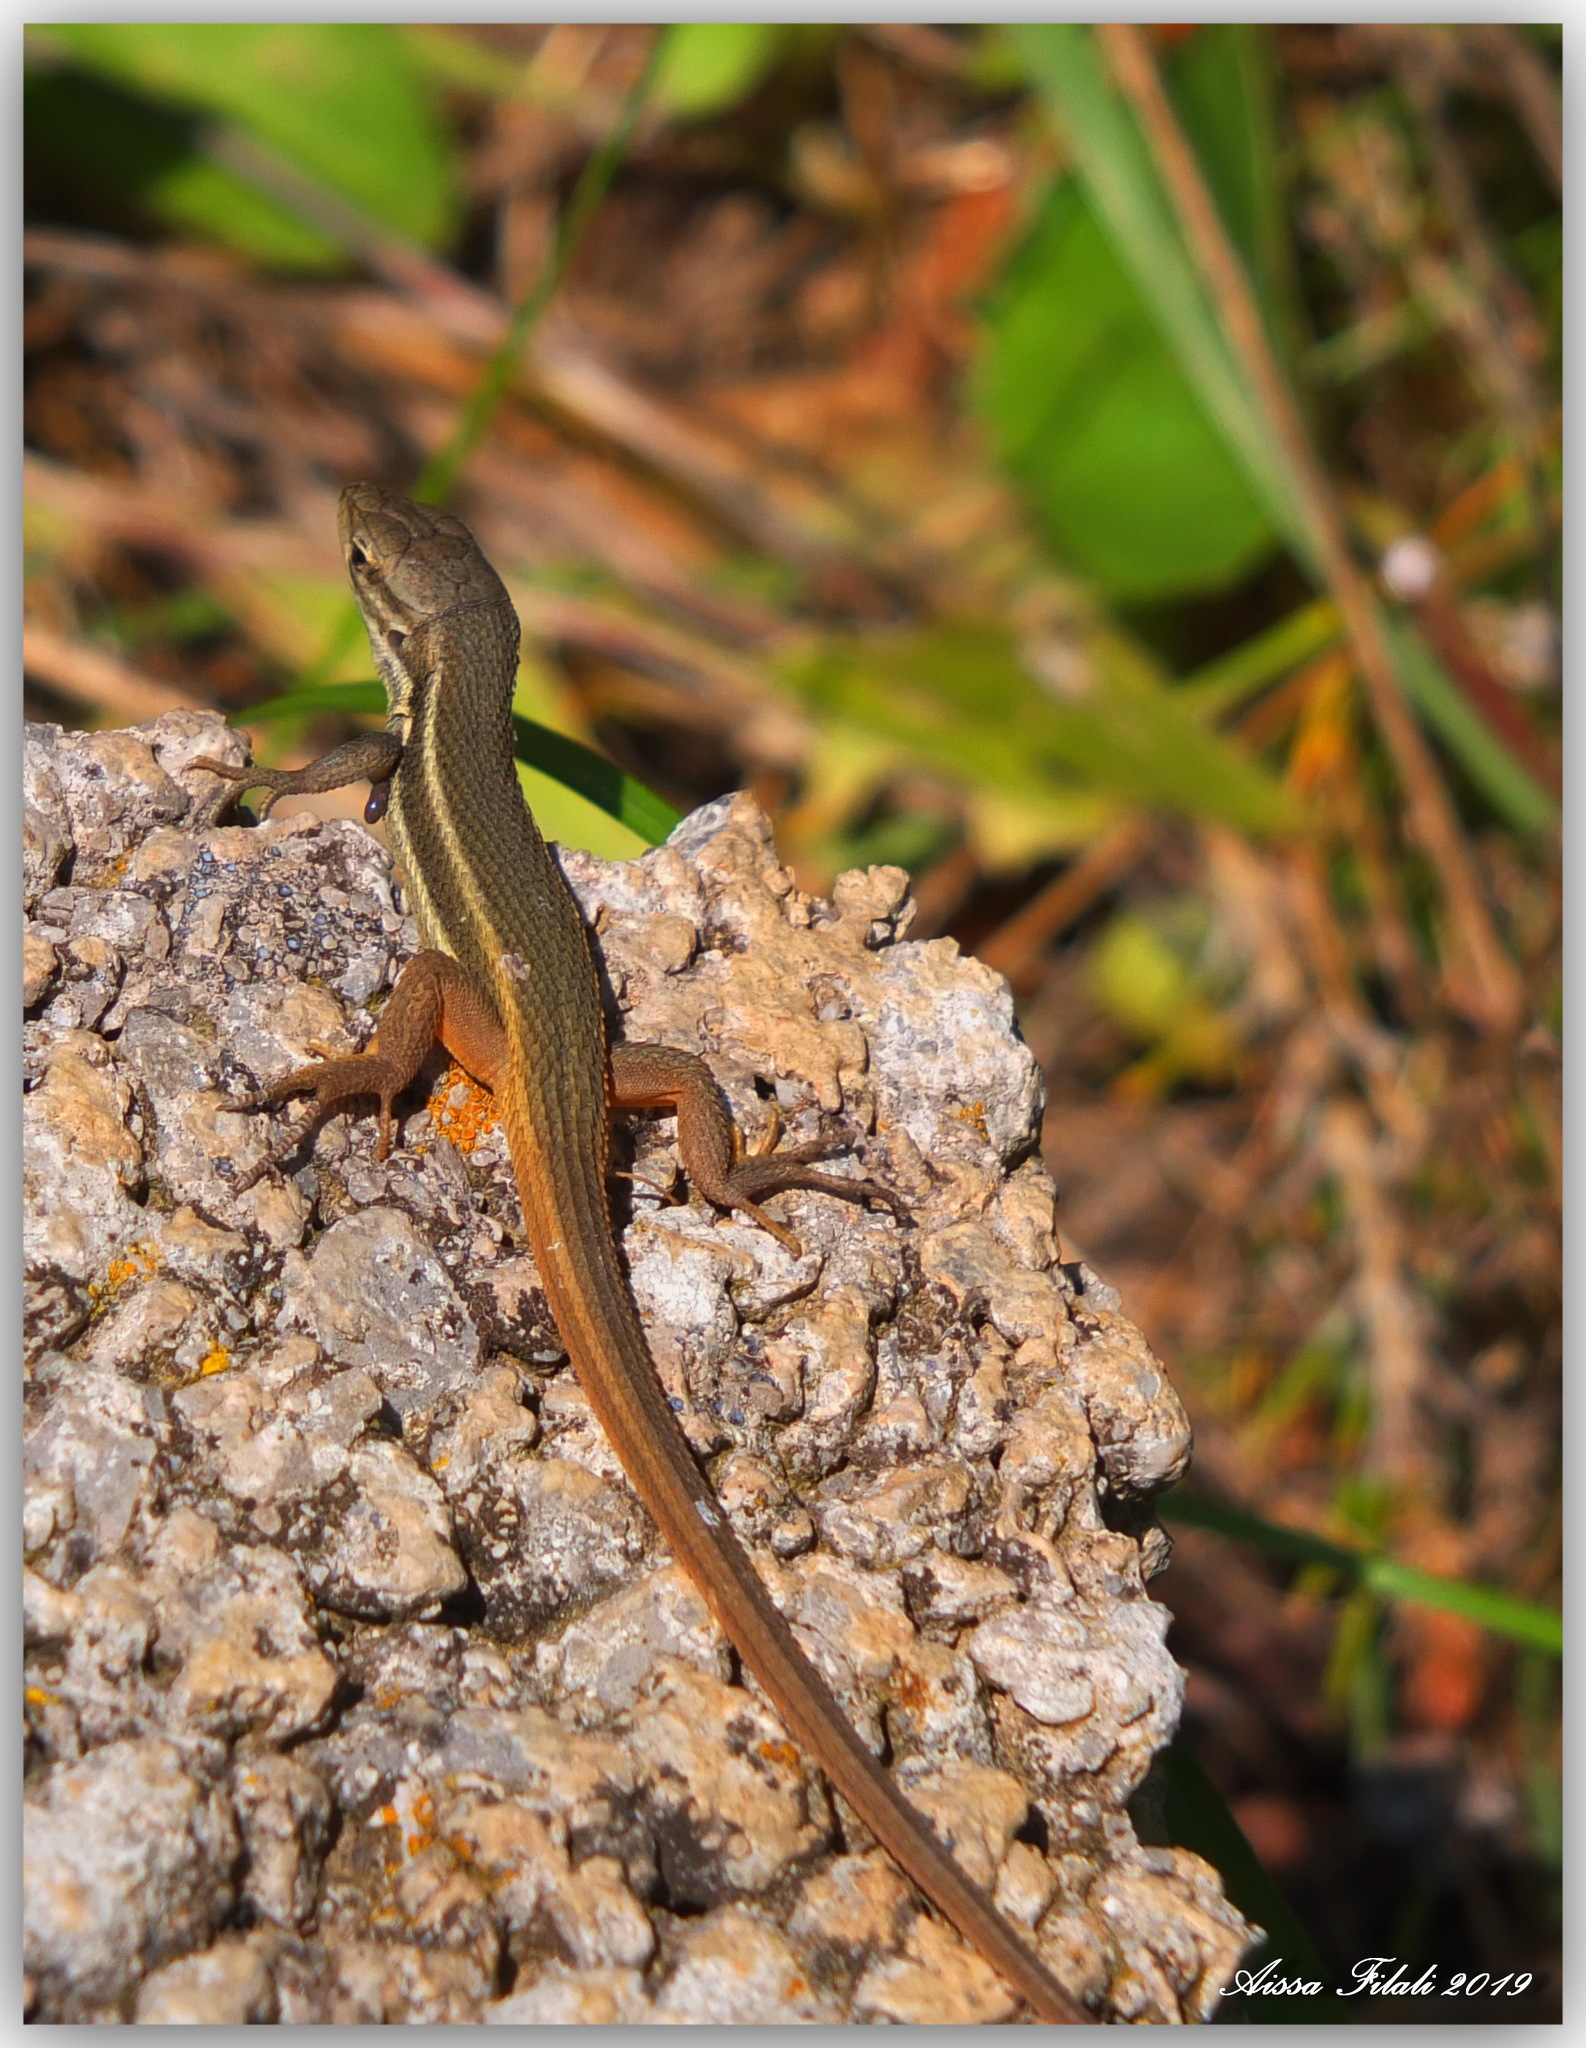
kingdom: Animalia
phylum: Chordata
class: Squamata
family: Lacertidae
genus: Psammodromus
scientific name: Psammodromus algirus
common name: Algerian psammodromus
